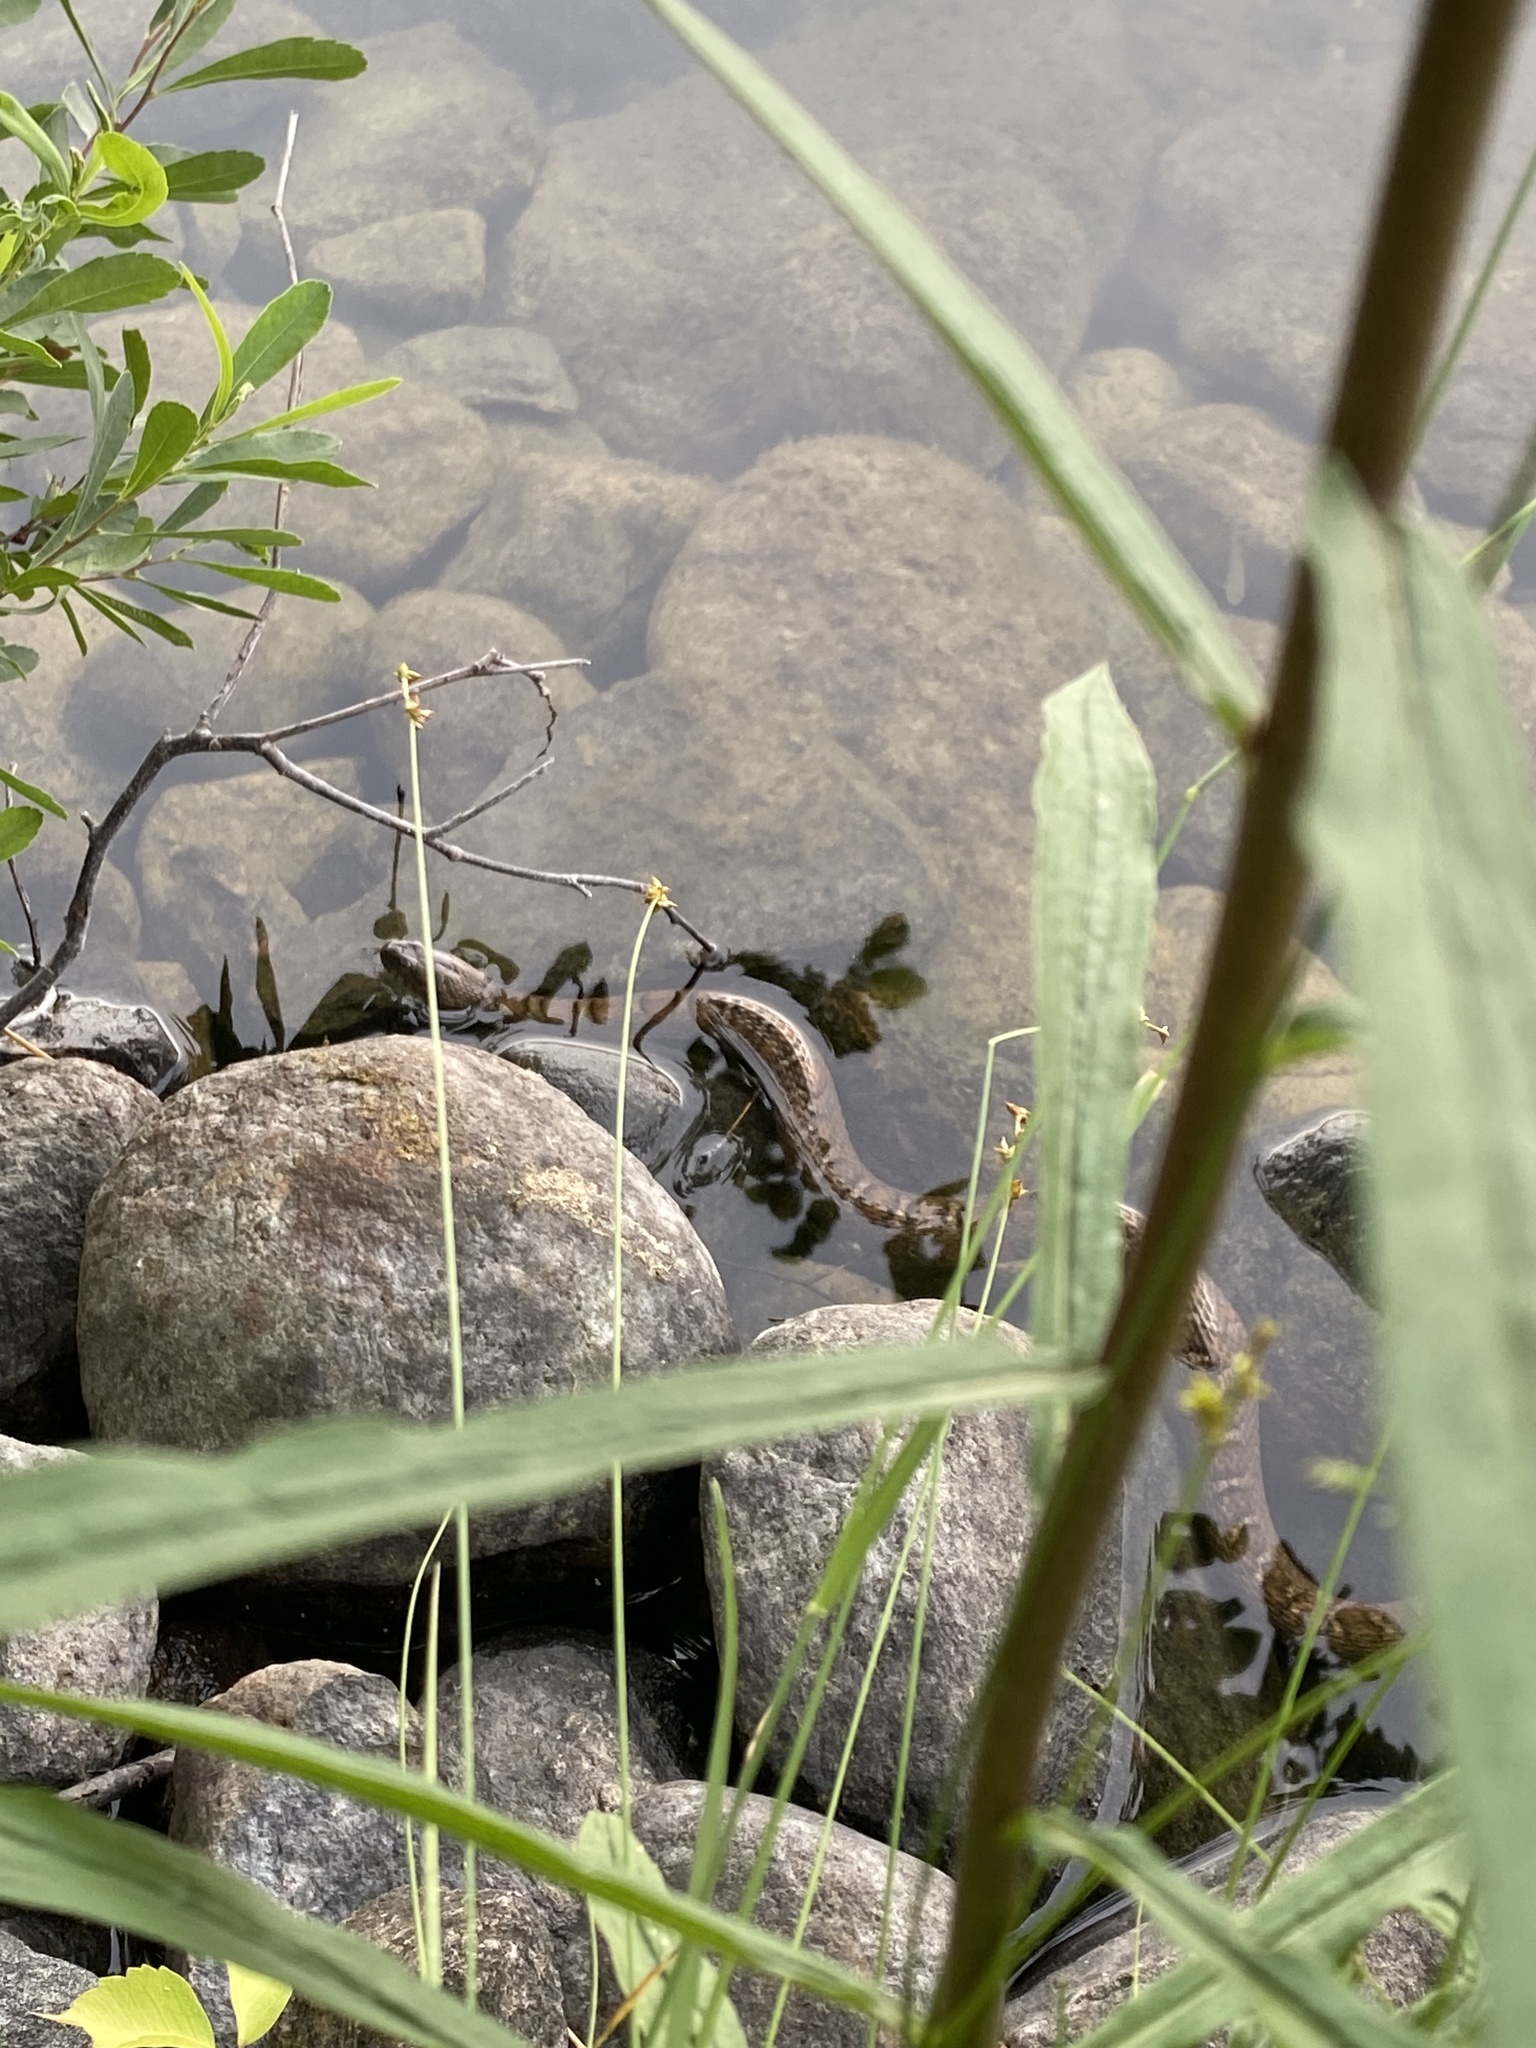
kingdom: Animalia
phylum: Chordata
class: Squamata
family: Colubridae
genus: Nerodia
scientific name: Nerodia sipedon
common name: Northern water snake
